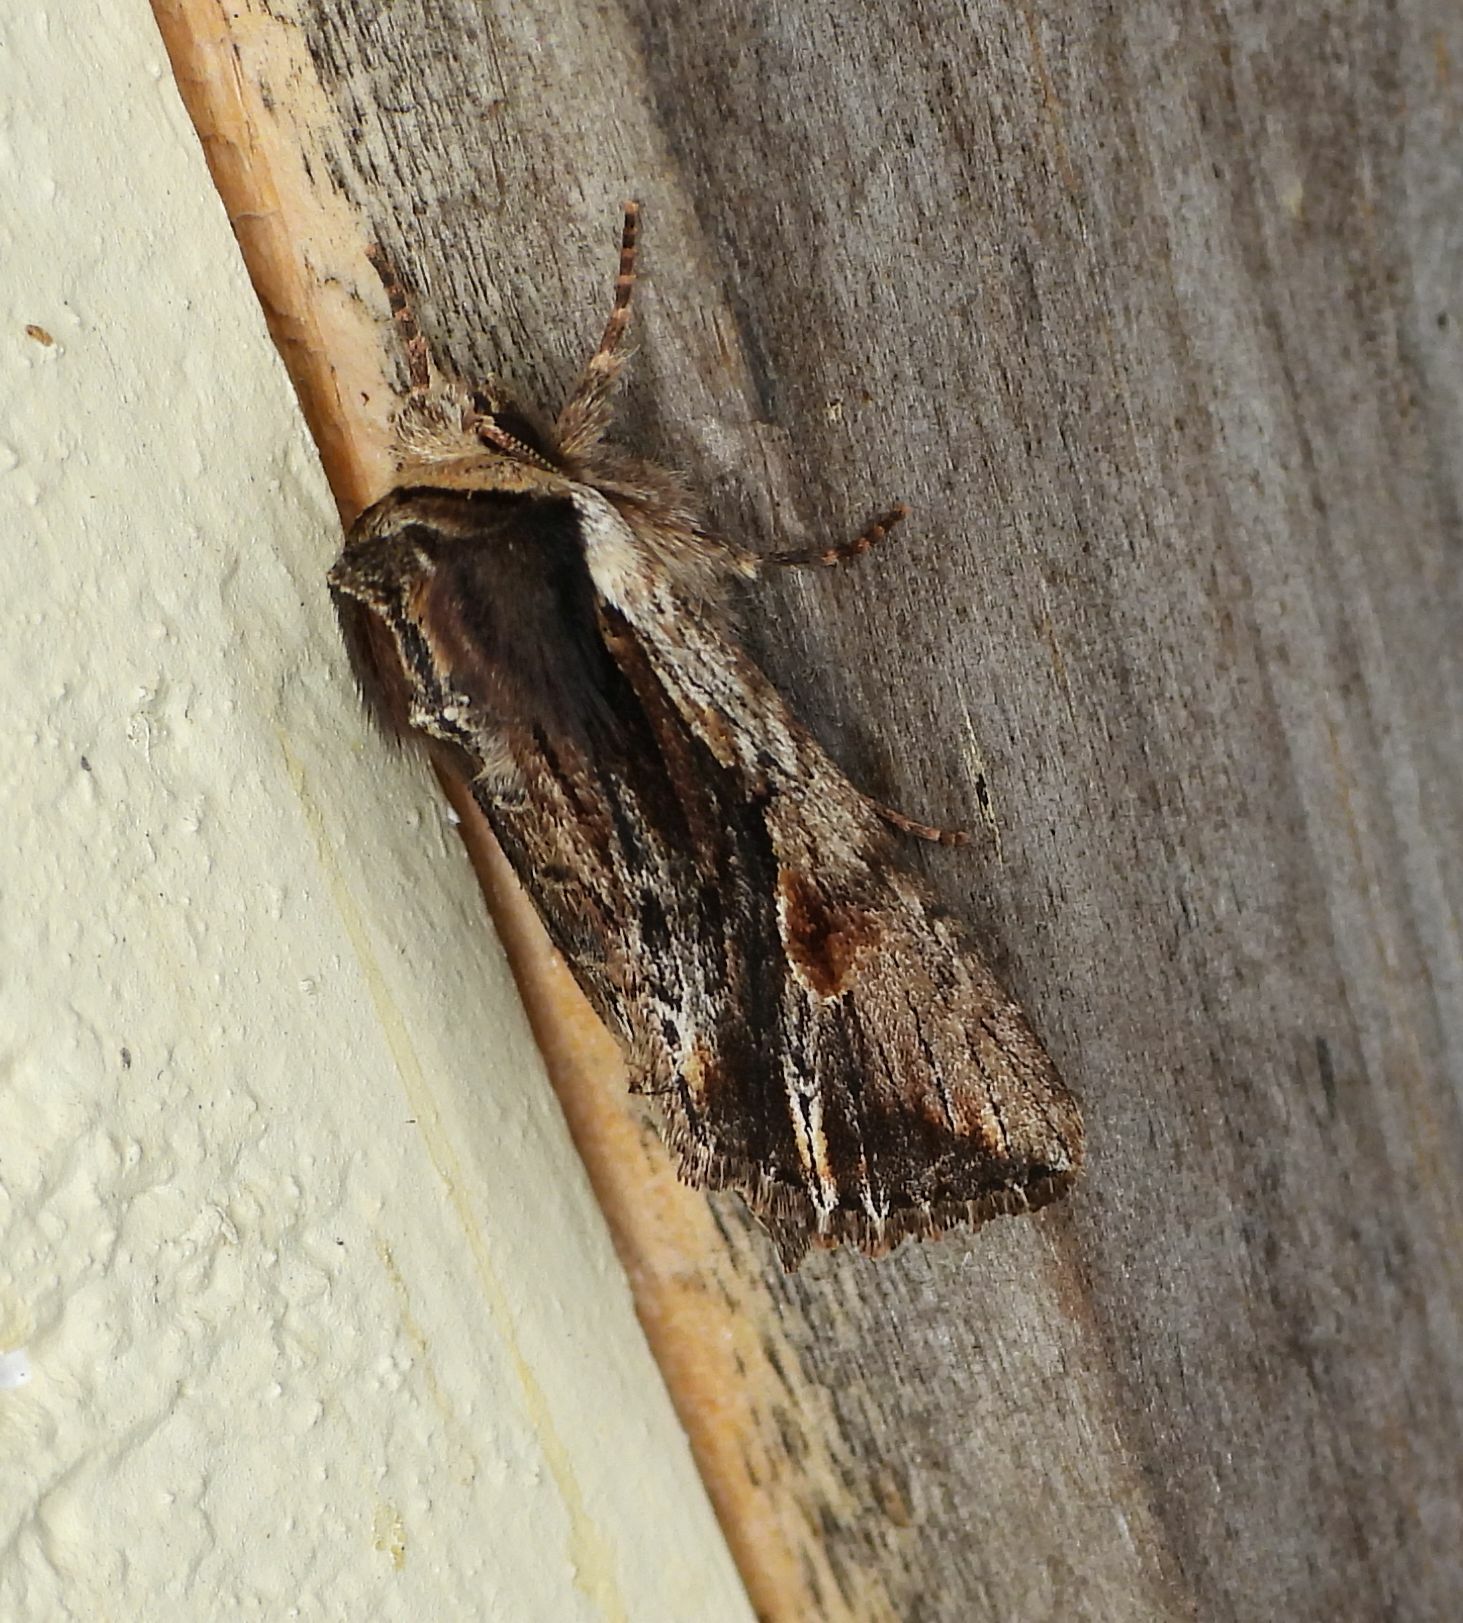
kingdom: Animalia
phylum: Arthropoda
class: Insecta
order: Lepidoptera
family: Noctuidae
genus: Achatia
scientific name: Achatia evicta
